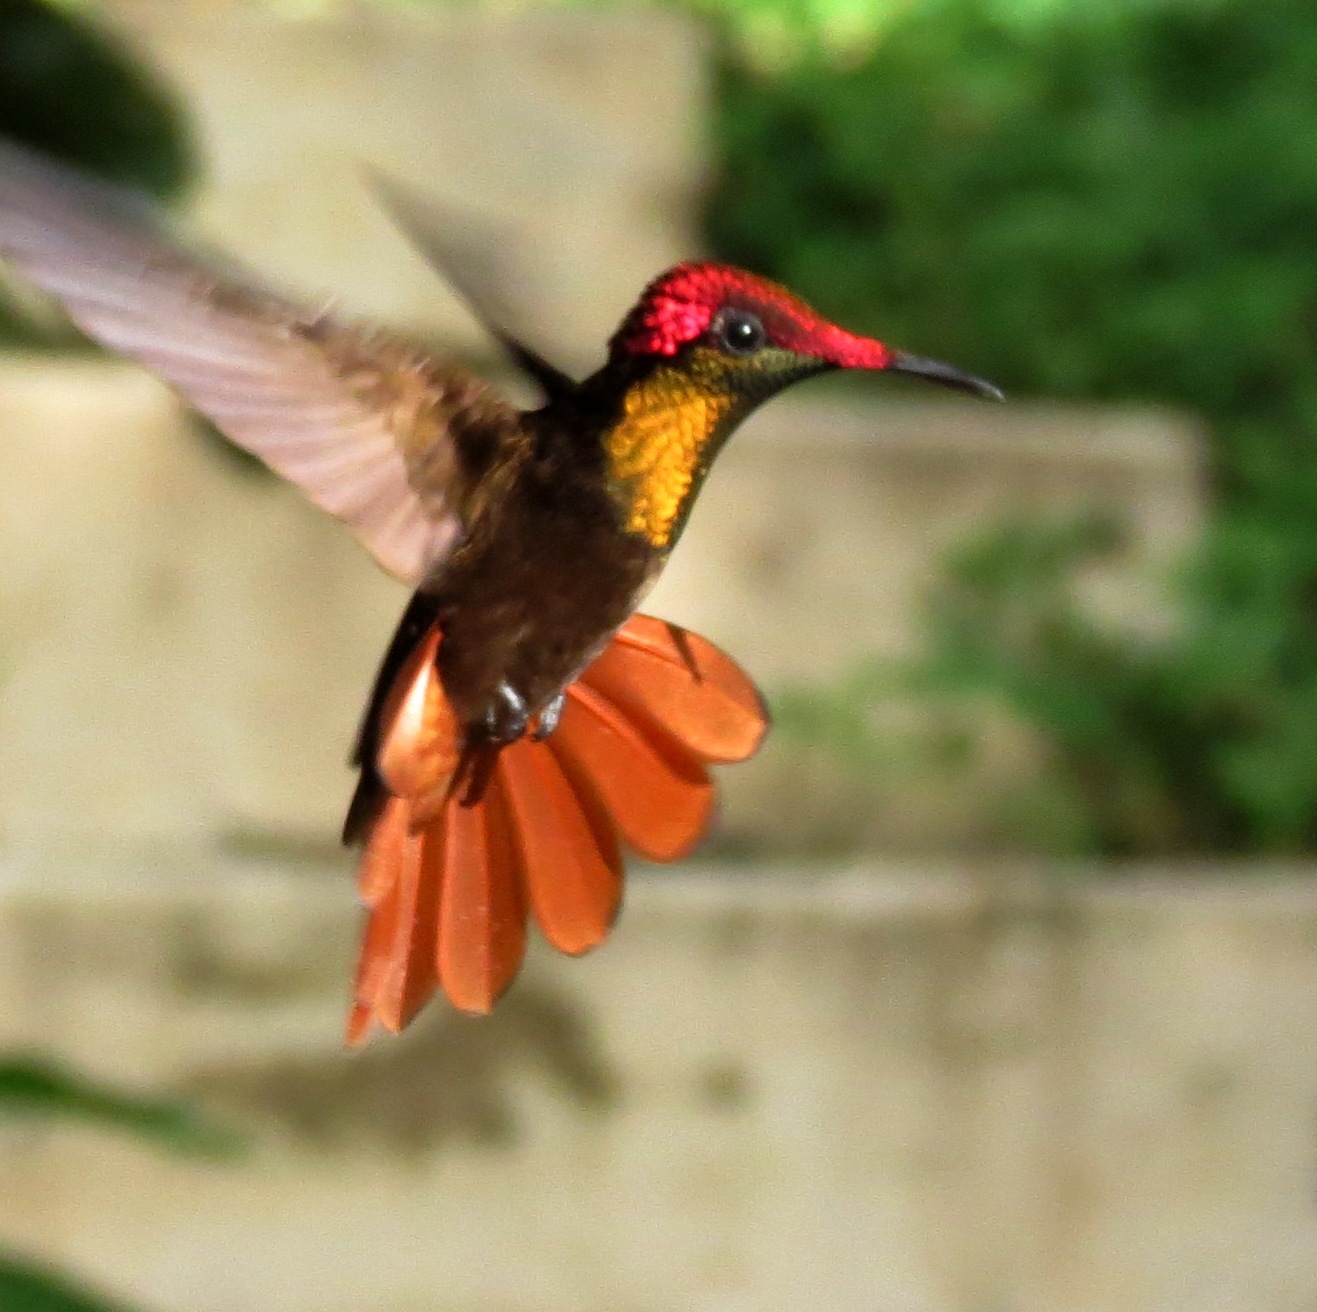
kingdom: Animalia
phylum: Chordata
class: Aves
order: Apodiformes
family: Trochilidae
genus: Chrysolampis
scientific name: Chrysolampis mosquitus
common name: Ruby-topaz hummingbird
